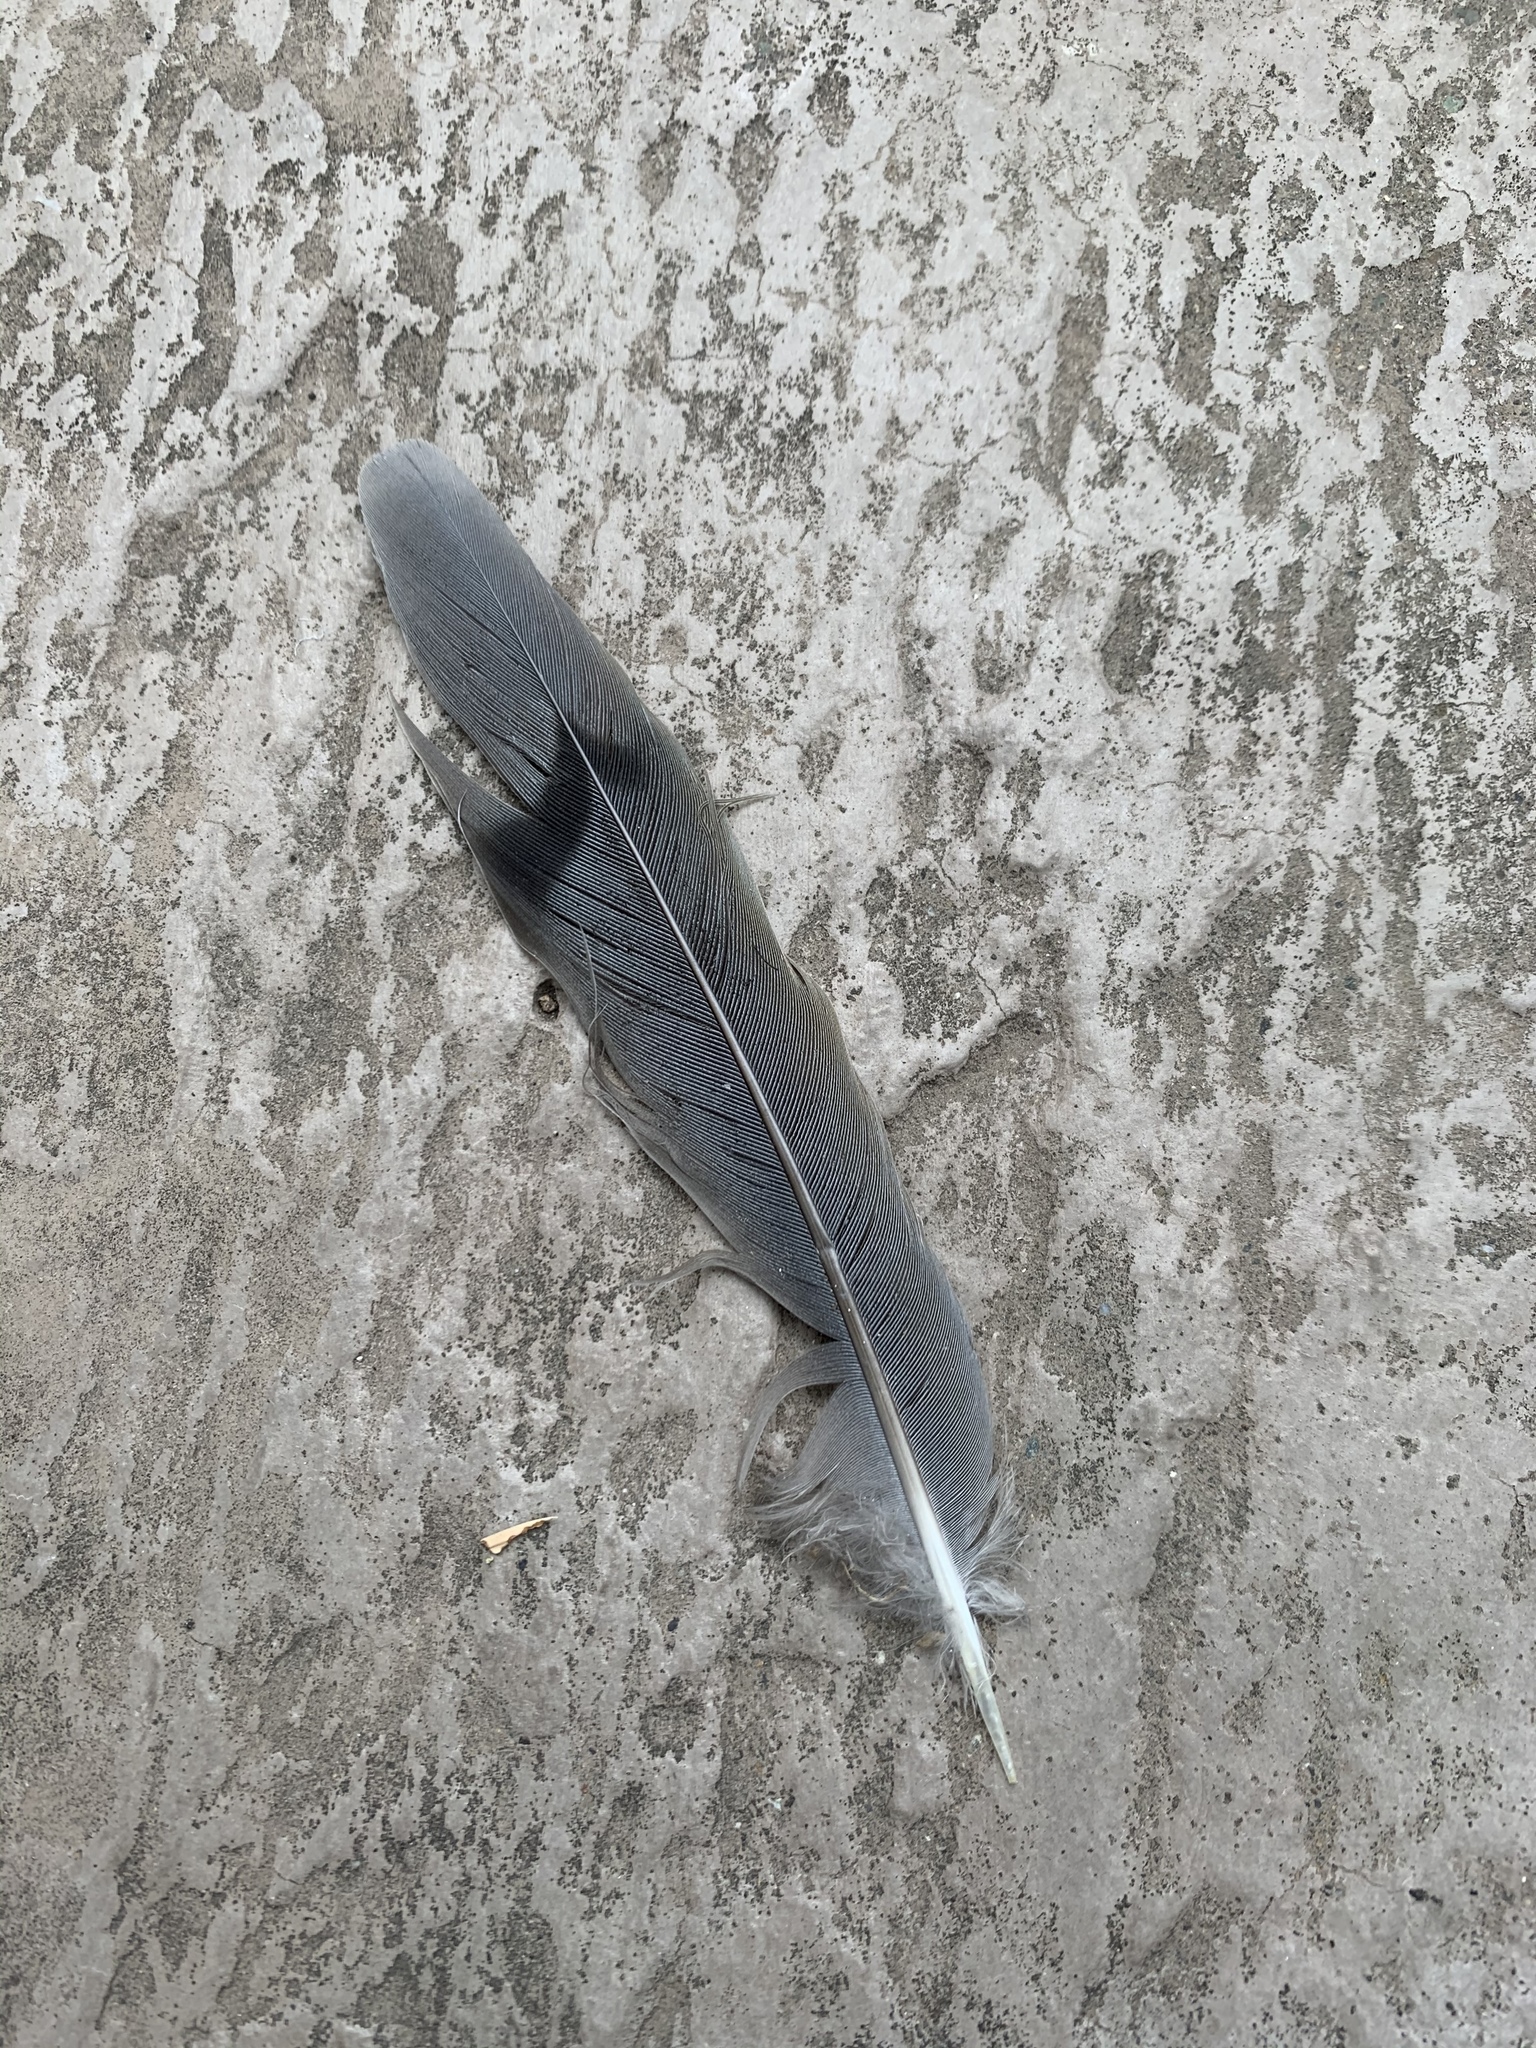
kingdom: Animalia
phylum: Chordata
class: Aves
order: Columbiformes
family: Columbidae
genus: Zenaida
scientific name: Zenaida macroura
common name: Mourning dove
